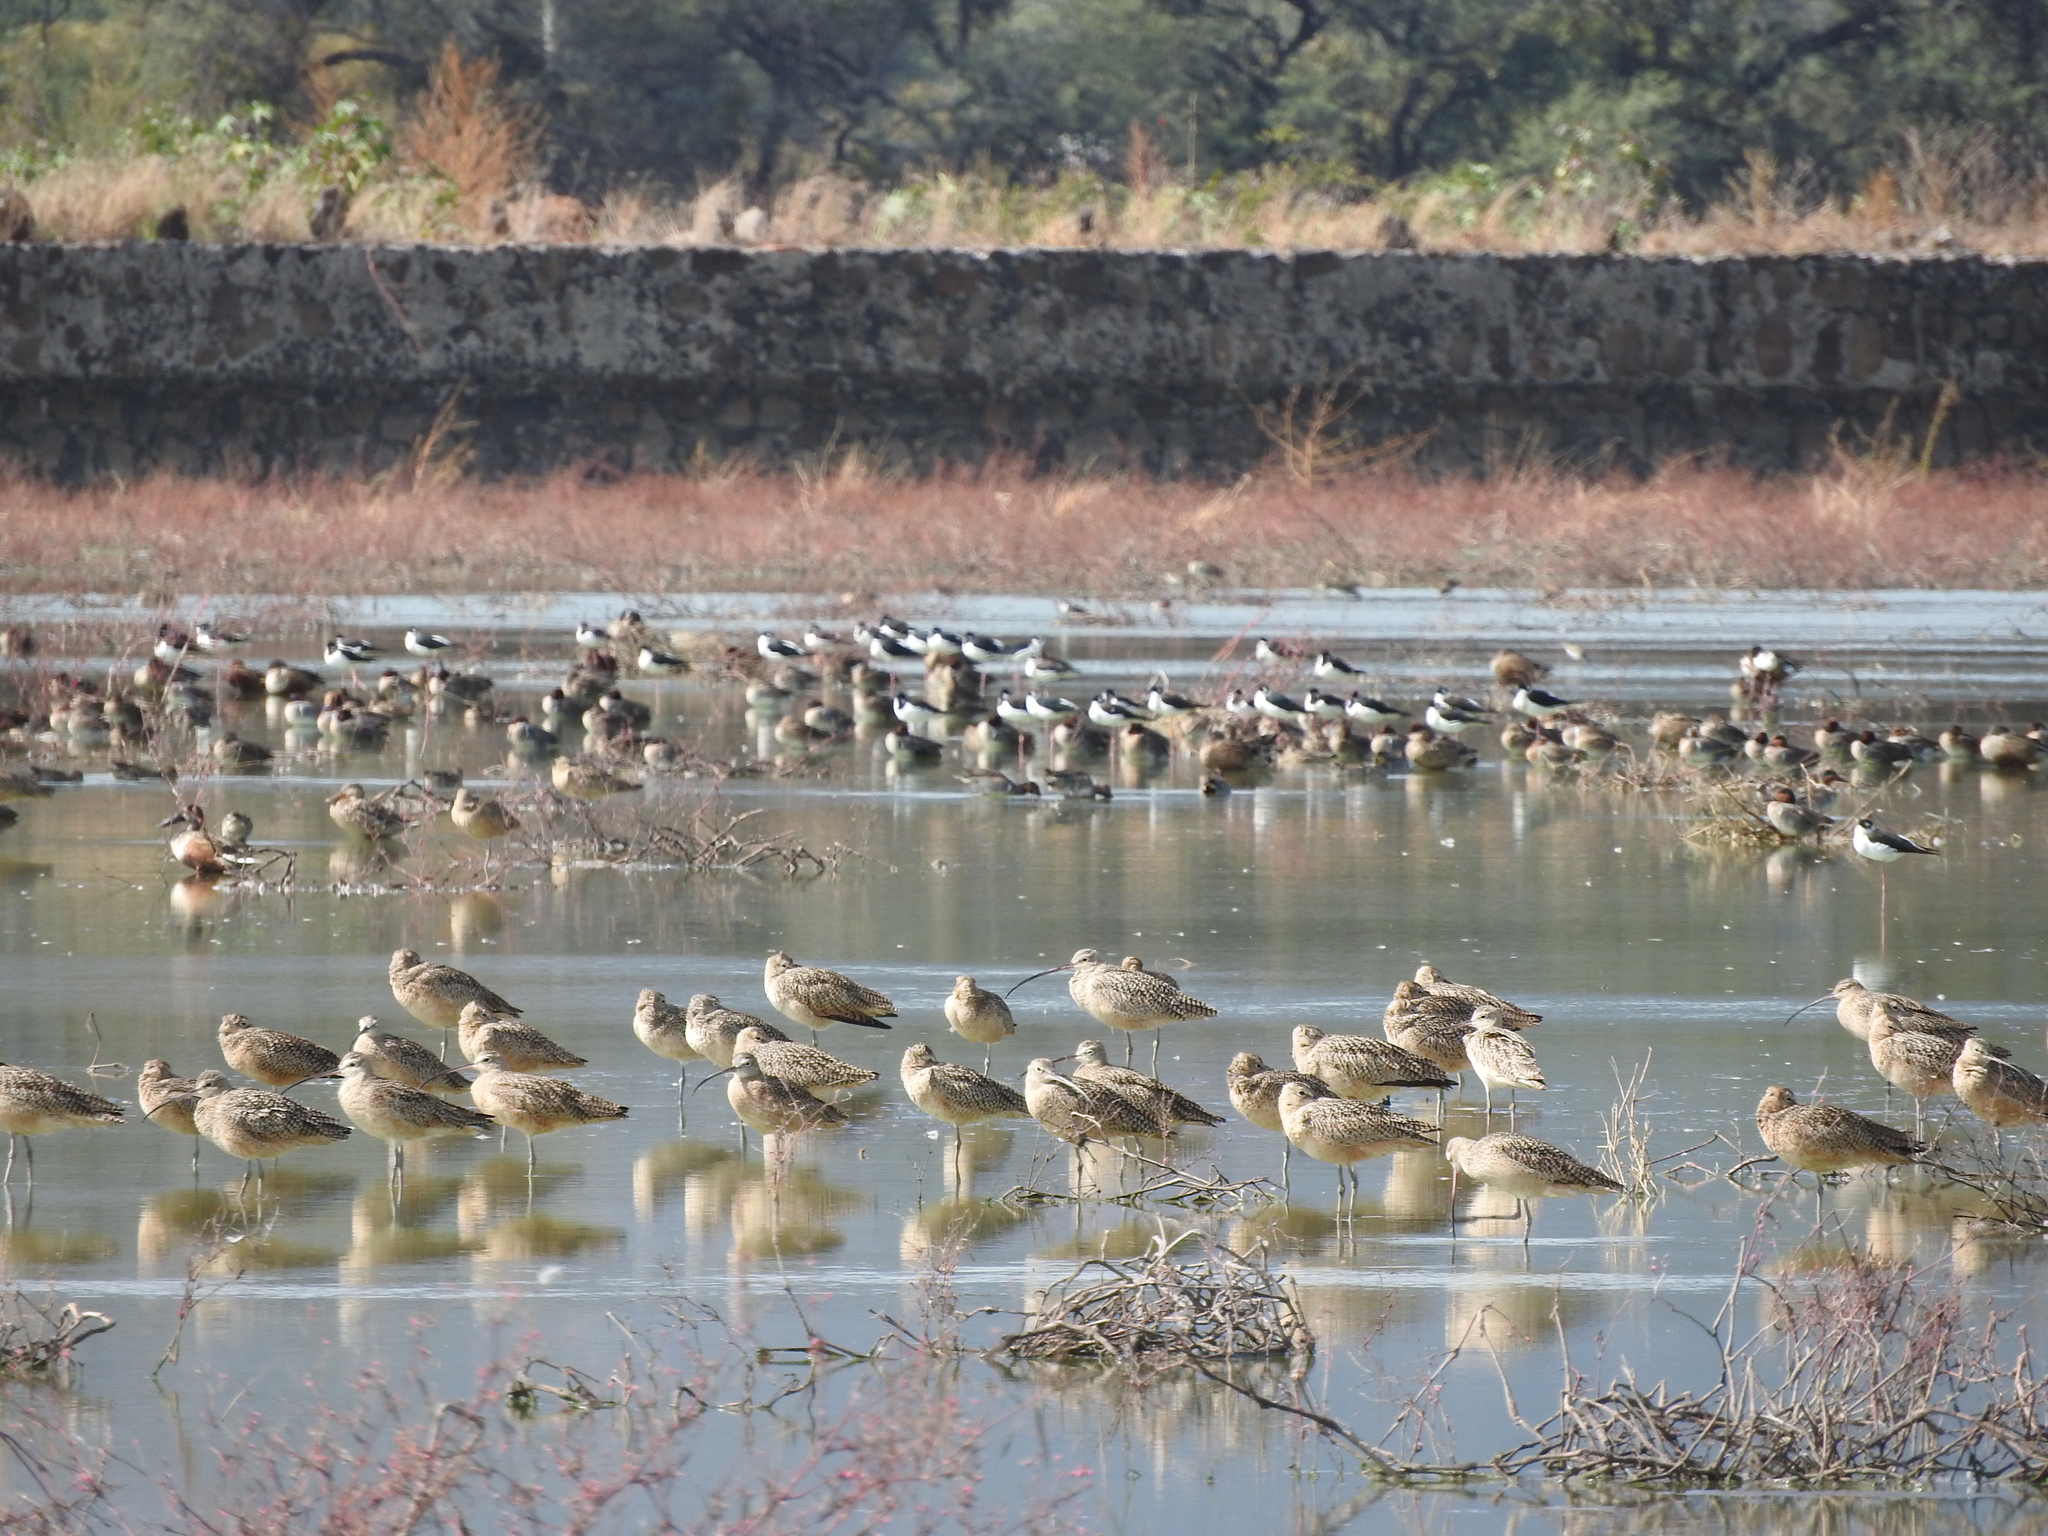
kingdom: Animalia
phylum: Chordata
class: Aves
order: Charadriiformes
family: Scolopacidae
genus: Numenius
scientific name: Numenius americanus
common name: Long-billed curlew
